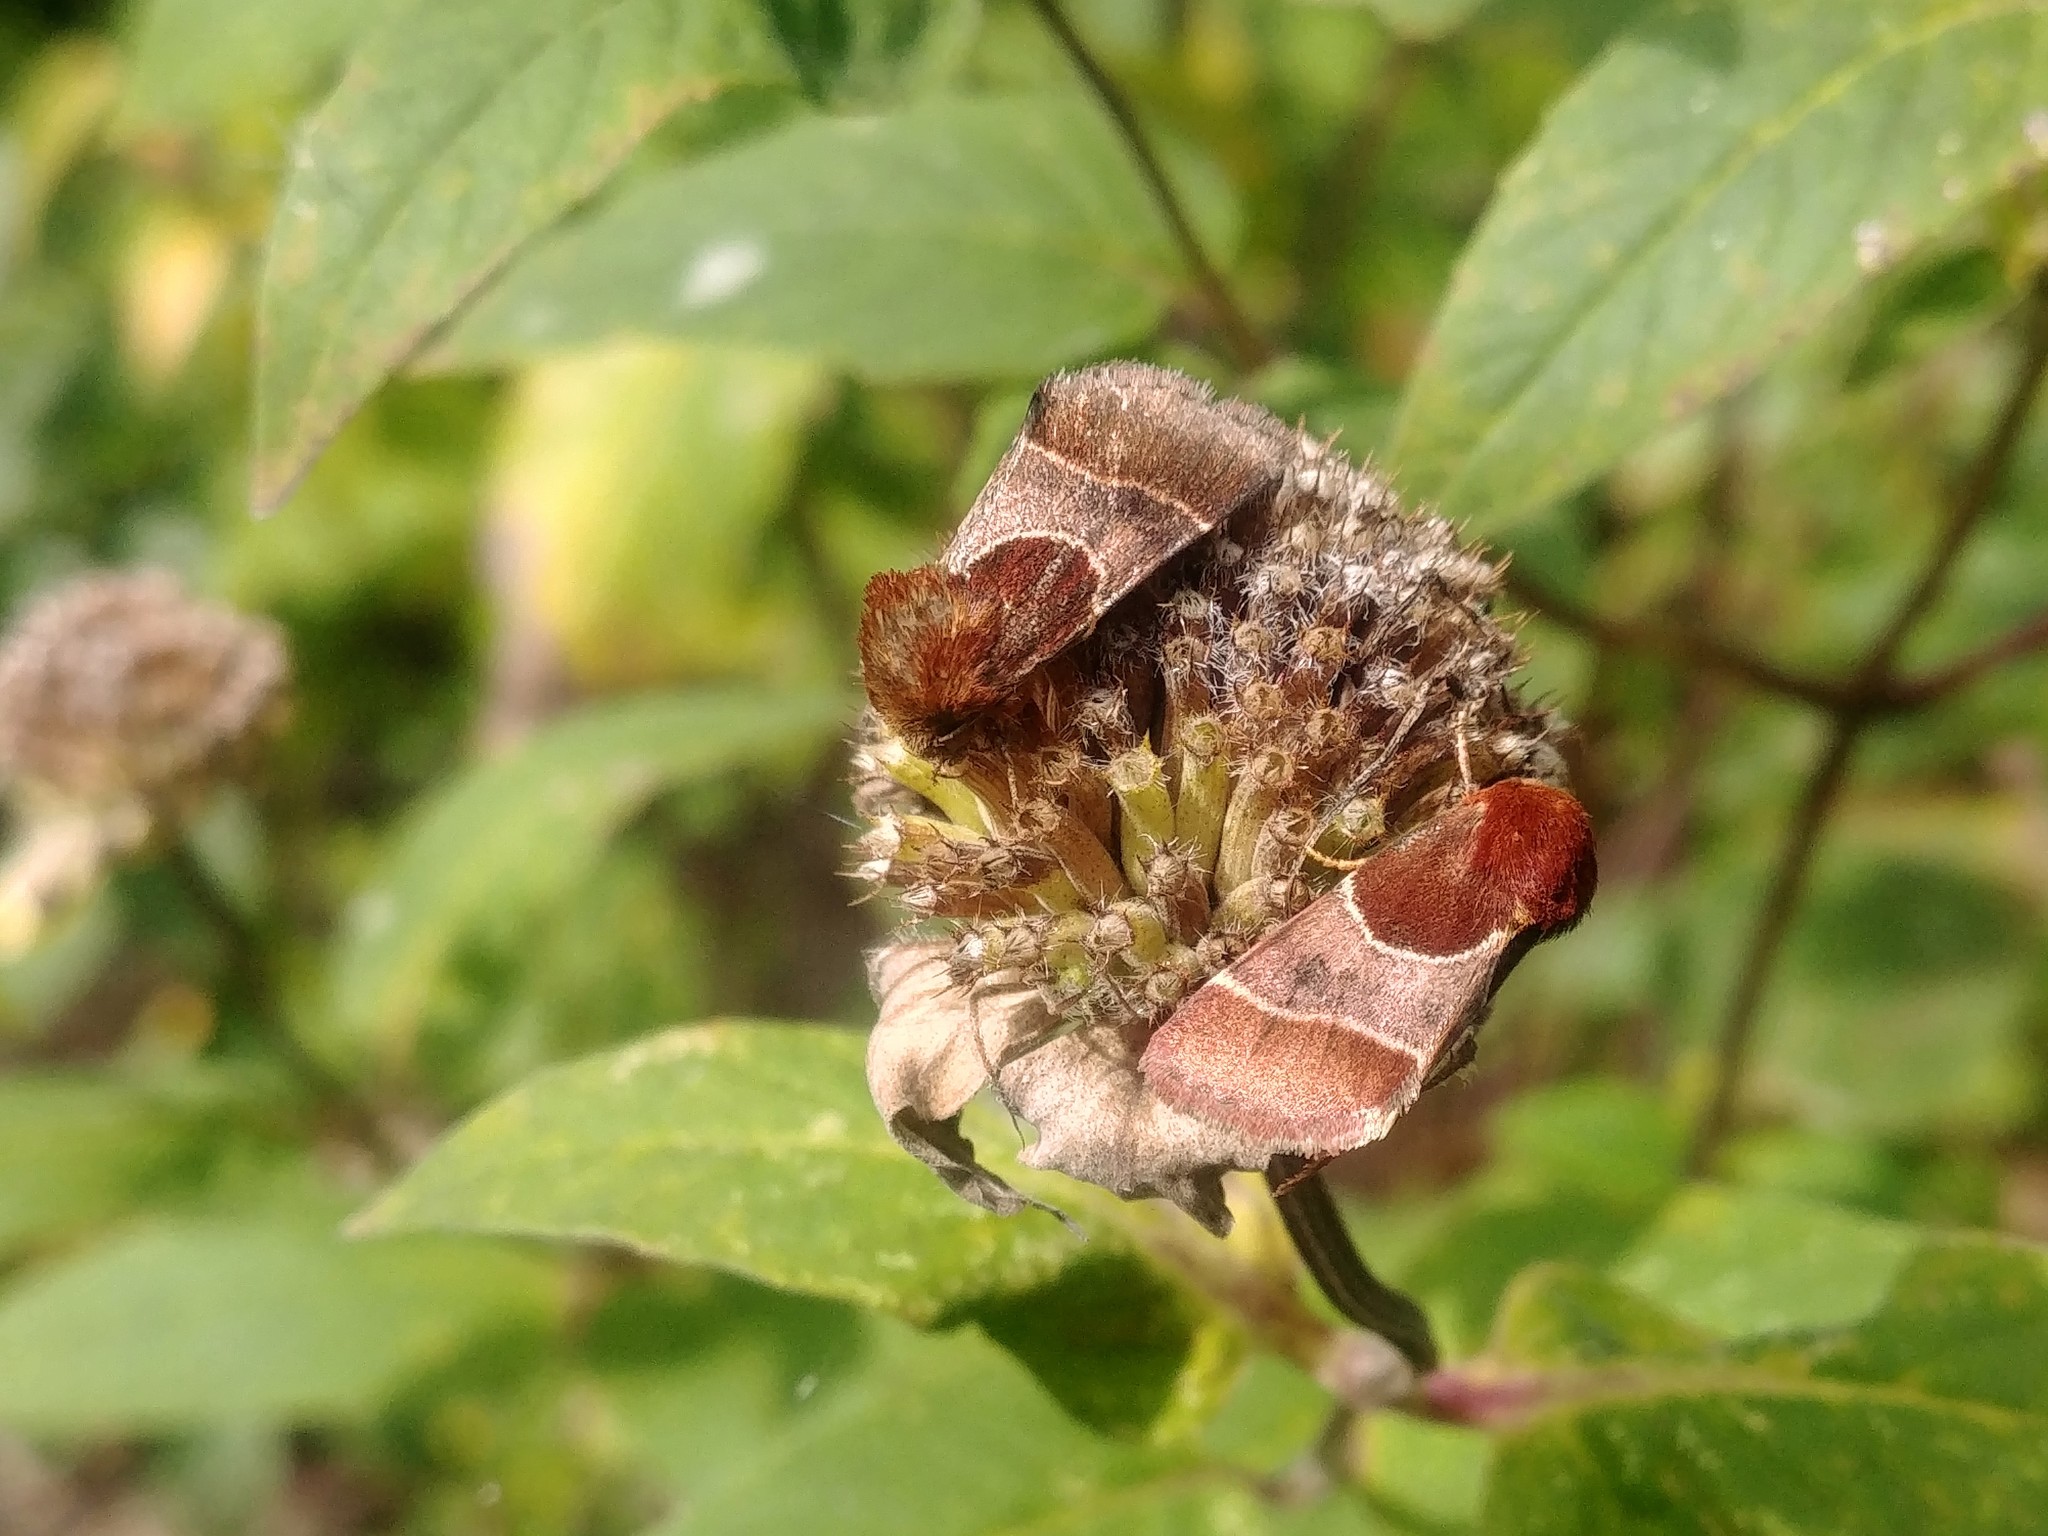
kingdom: Animalia
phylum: Arthropoda
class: Insecta
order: Lepidoptera
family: Noctuidae
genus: Schinia
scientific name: Schinia arcigera
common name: Arcigera flower moth
